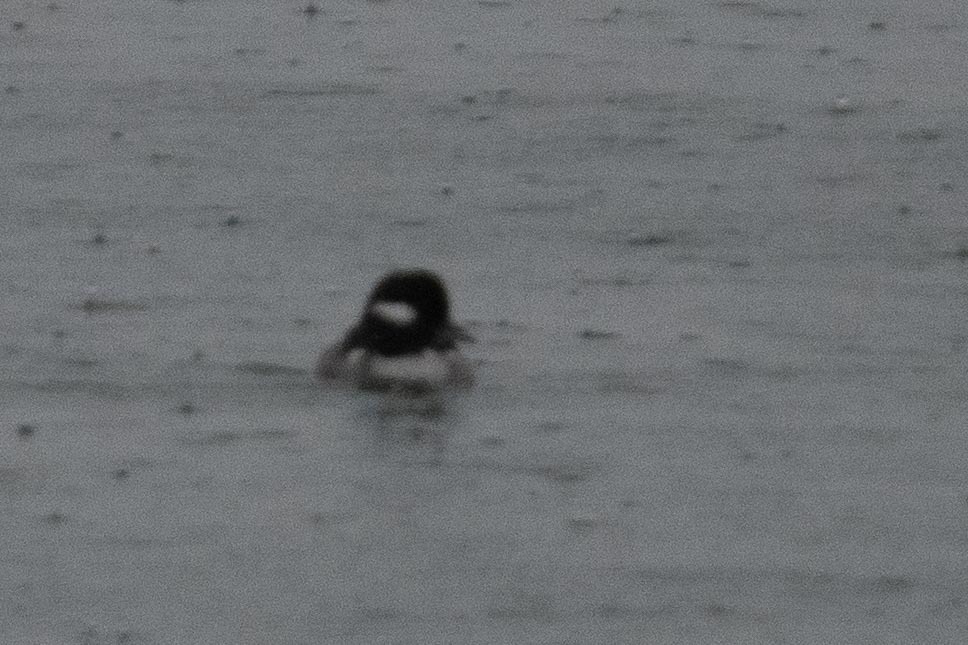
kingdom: Animalia
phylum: Chordata
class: Aves
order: Anseriformes
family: Anatidae
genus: Bucephala
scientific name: Bucephala albeola
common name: Bufflehead
